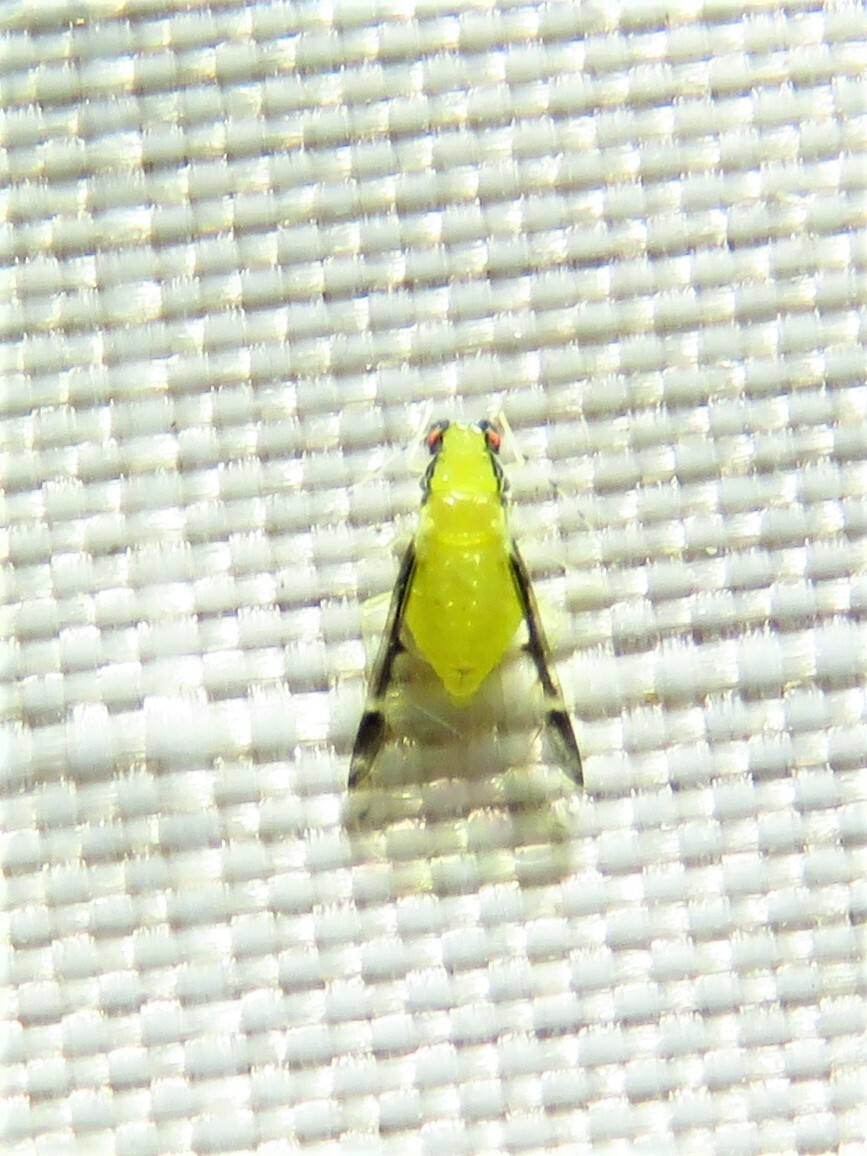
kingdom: Animalia
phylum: Arthropoda
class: Insecta
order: Hemiptera
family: Aphididae
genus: Monellia
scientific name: Monellia caryella
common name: Blackmargined aphid
